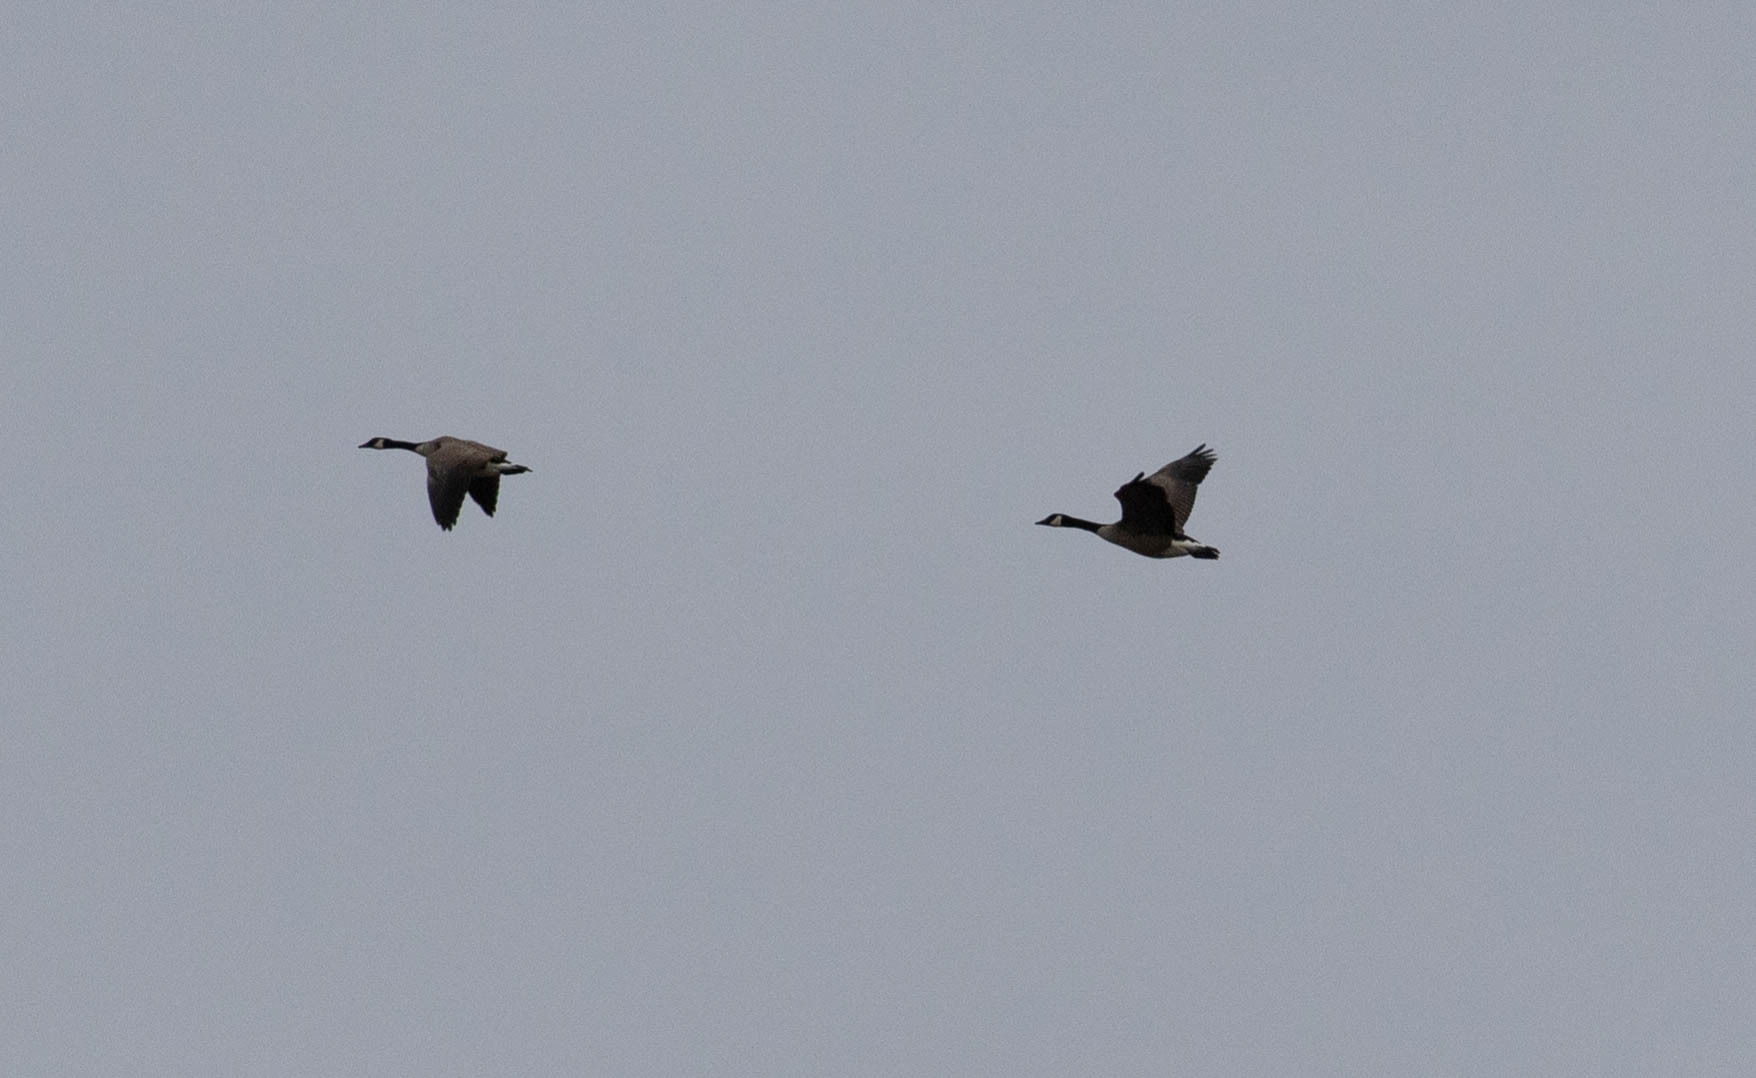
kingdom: Animalia
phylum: Chordata
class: Aves
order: Anseriformes
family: Anatidae
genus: Branta
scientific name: Branta canadensis
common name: Canada goose
